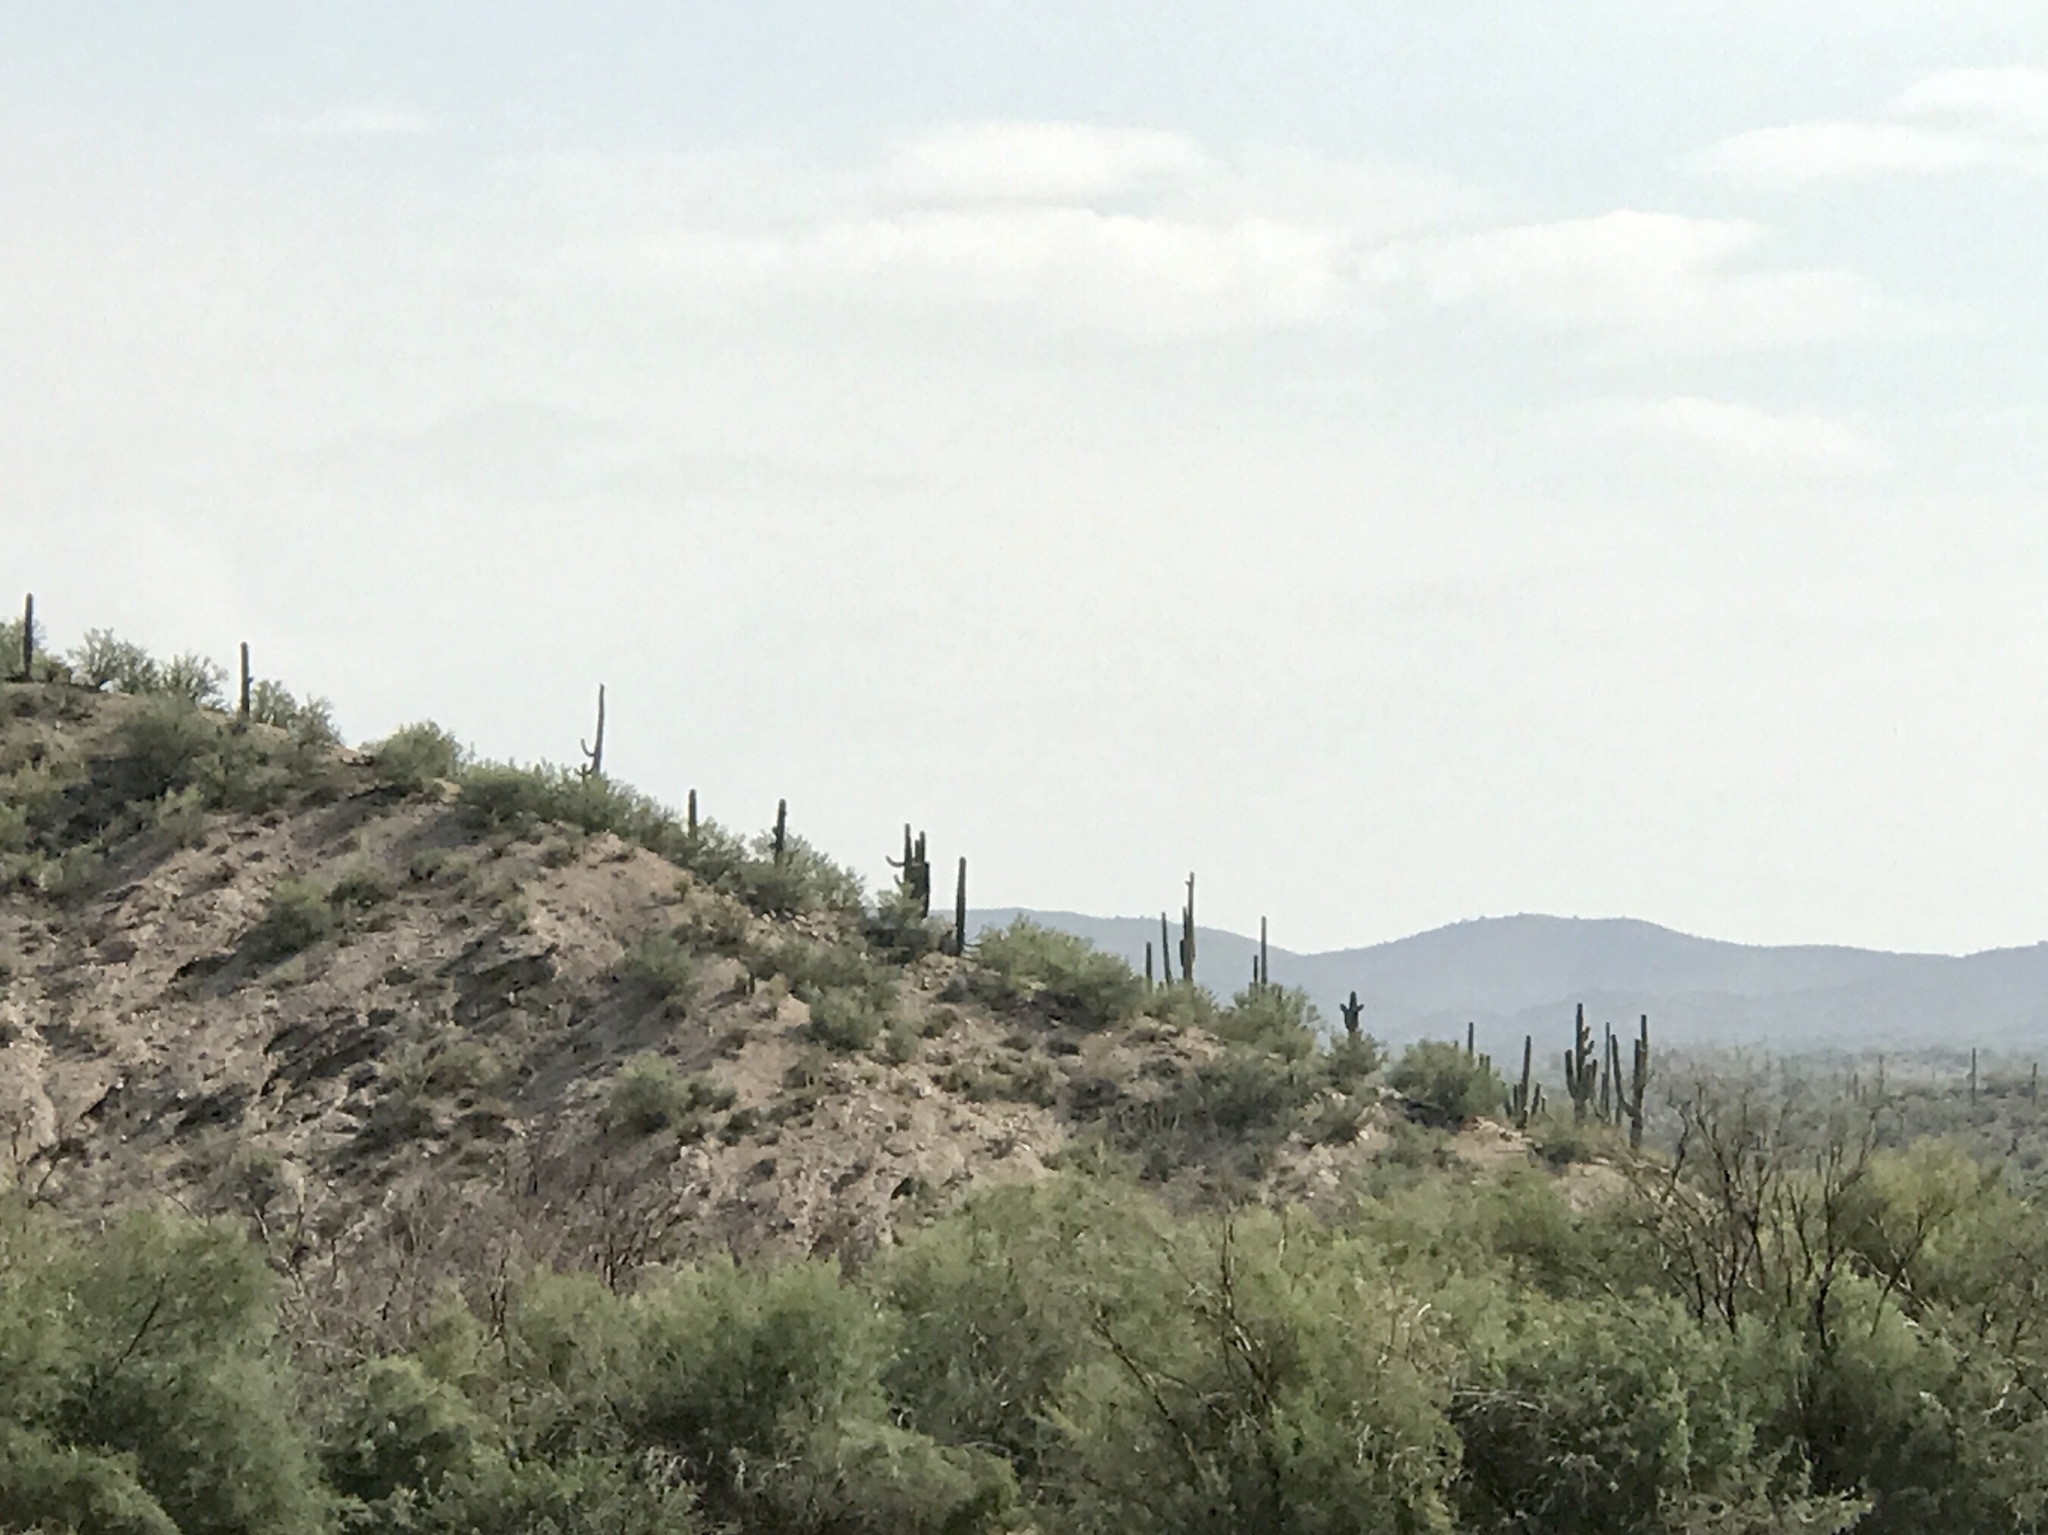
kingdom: Plantae
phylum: Tracheophyta
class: Magnoliopsida
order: Caryophyllales
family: Cactaceae
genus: Carnegiea
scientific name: Carnegiea gigantea
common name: Saguaro
